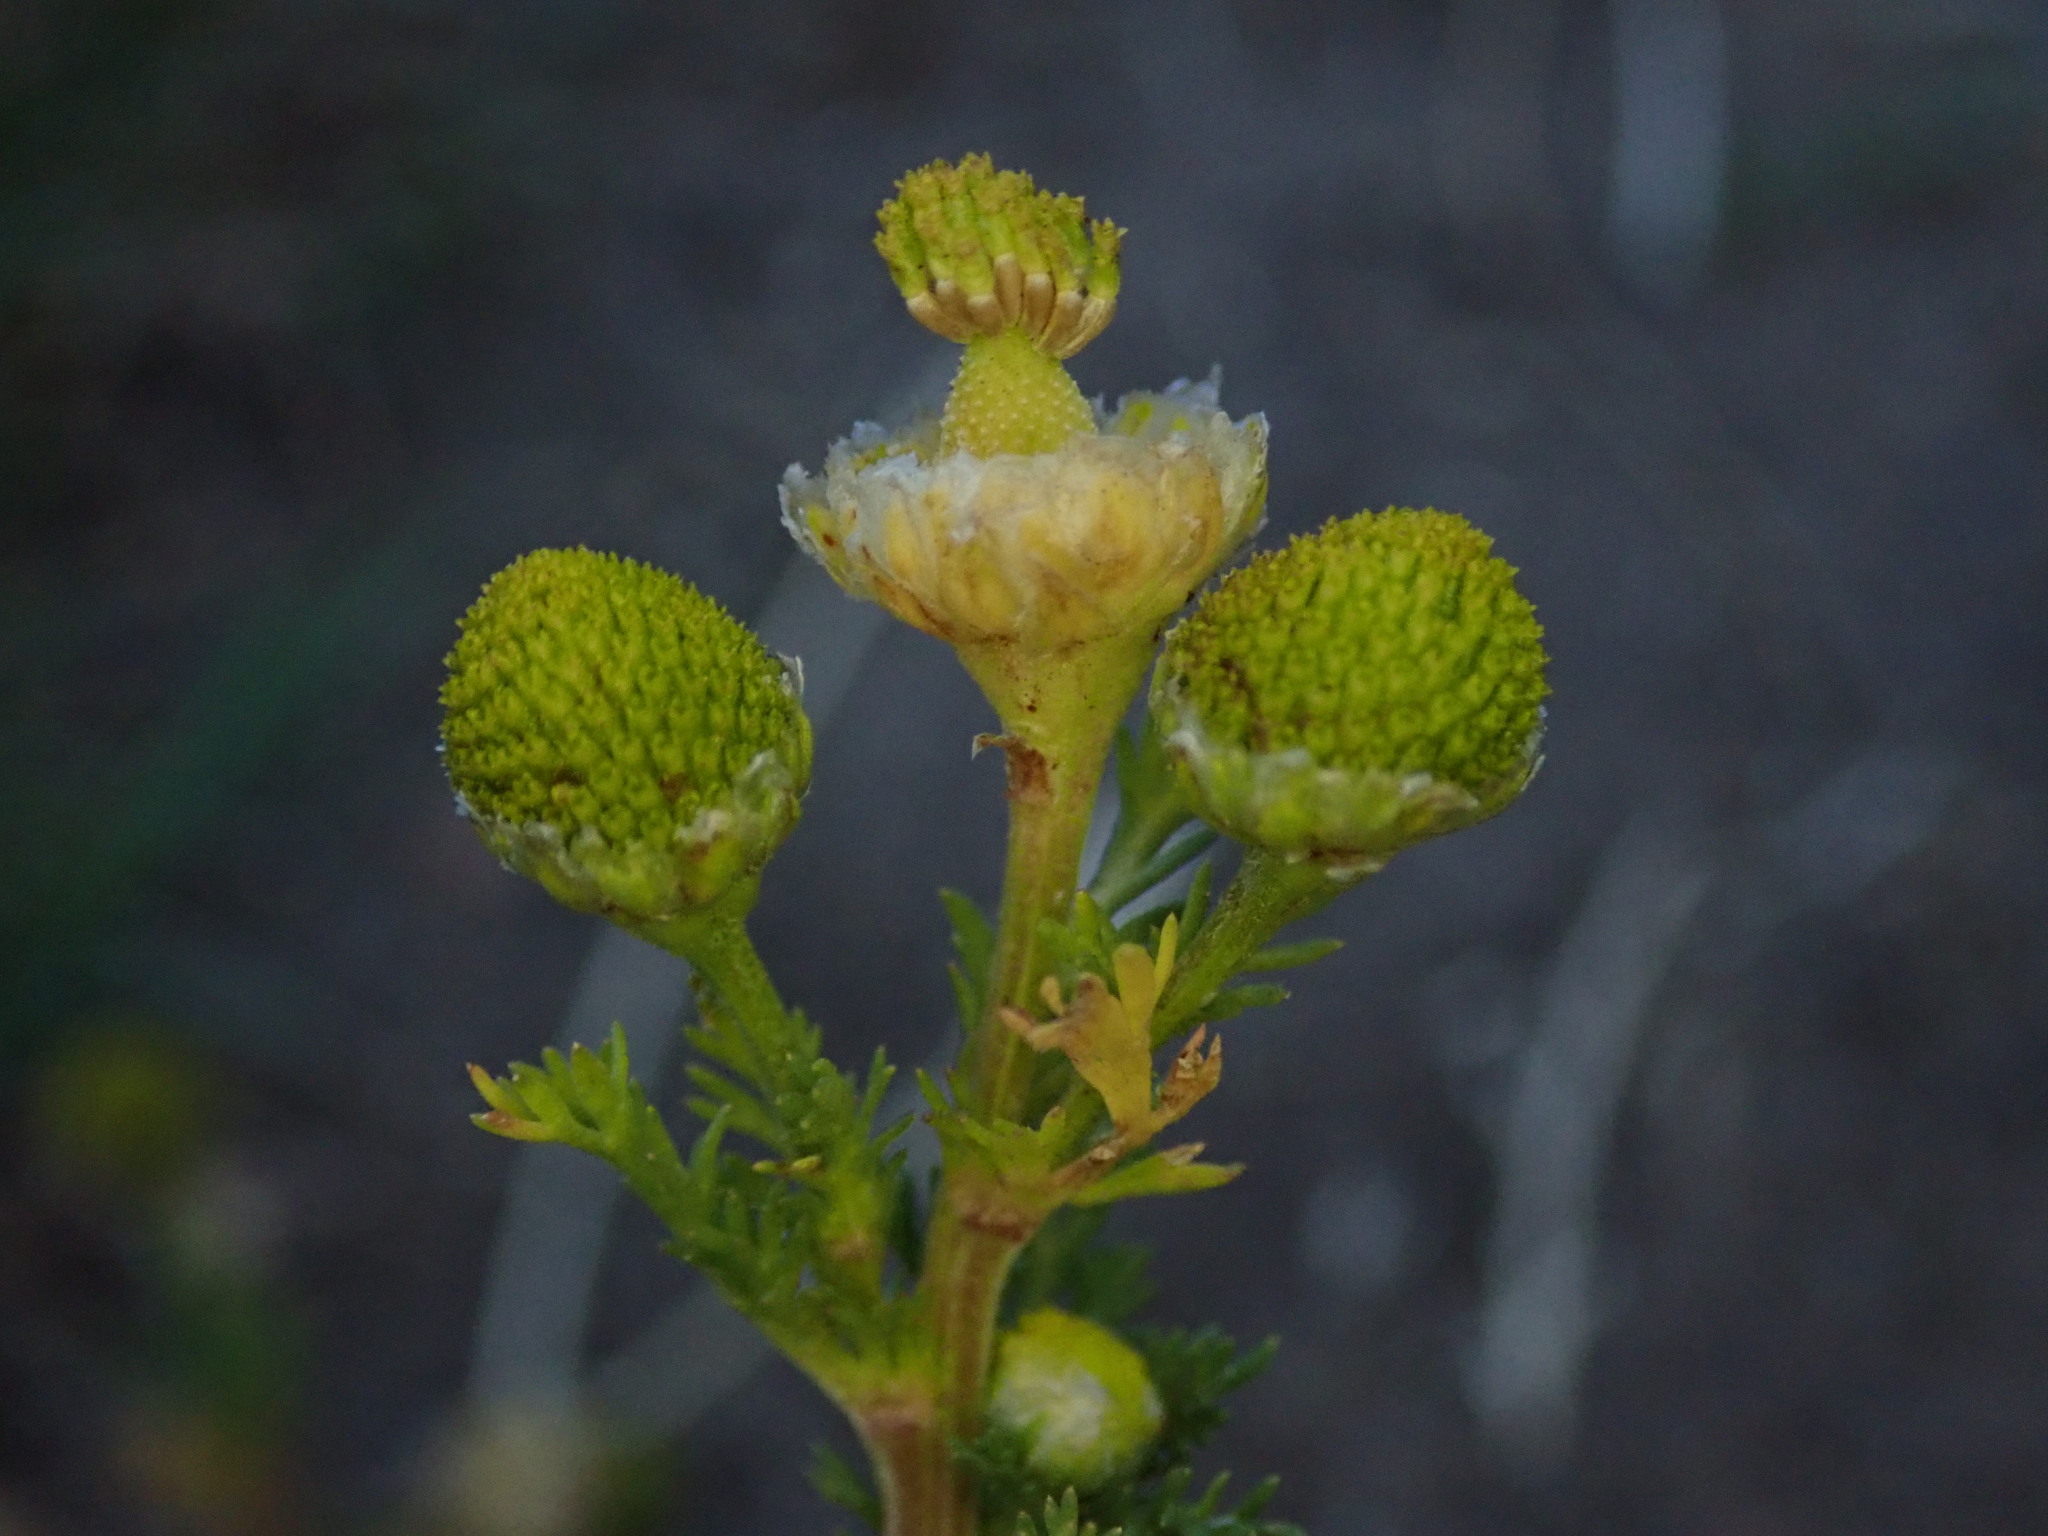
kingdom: Plantae
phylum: Tracheophyta
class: Magnoliopsida
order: Asterales
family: Asteraceae
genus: Matricaria
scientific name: Matricaria discoidea
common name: Disc mayweed
